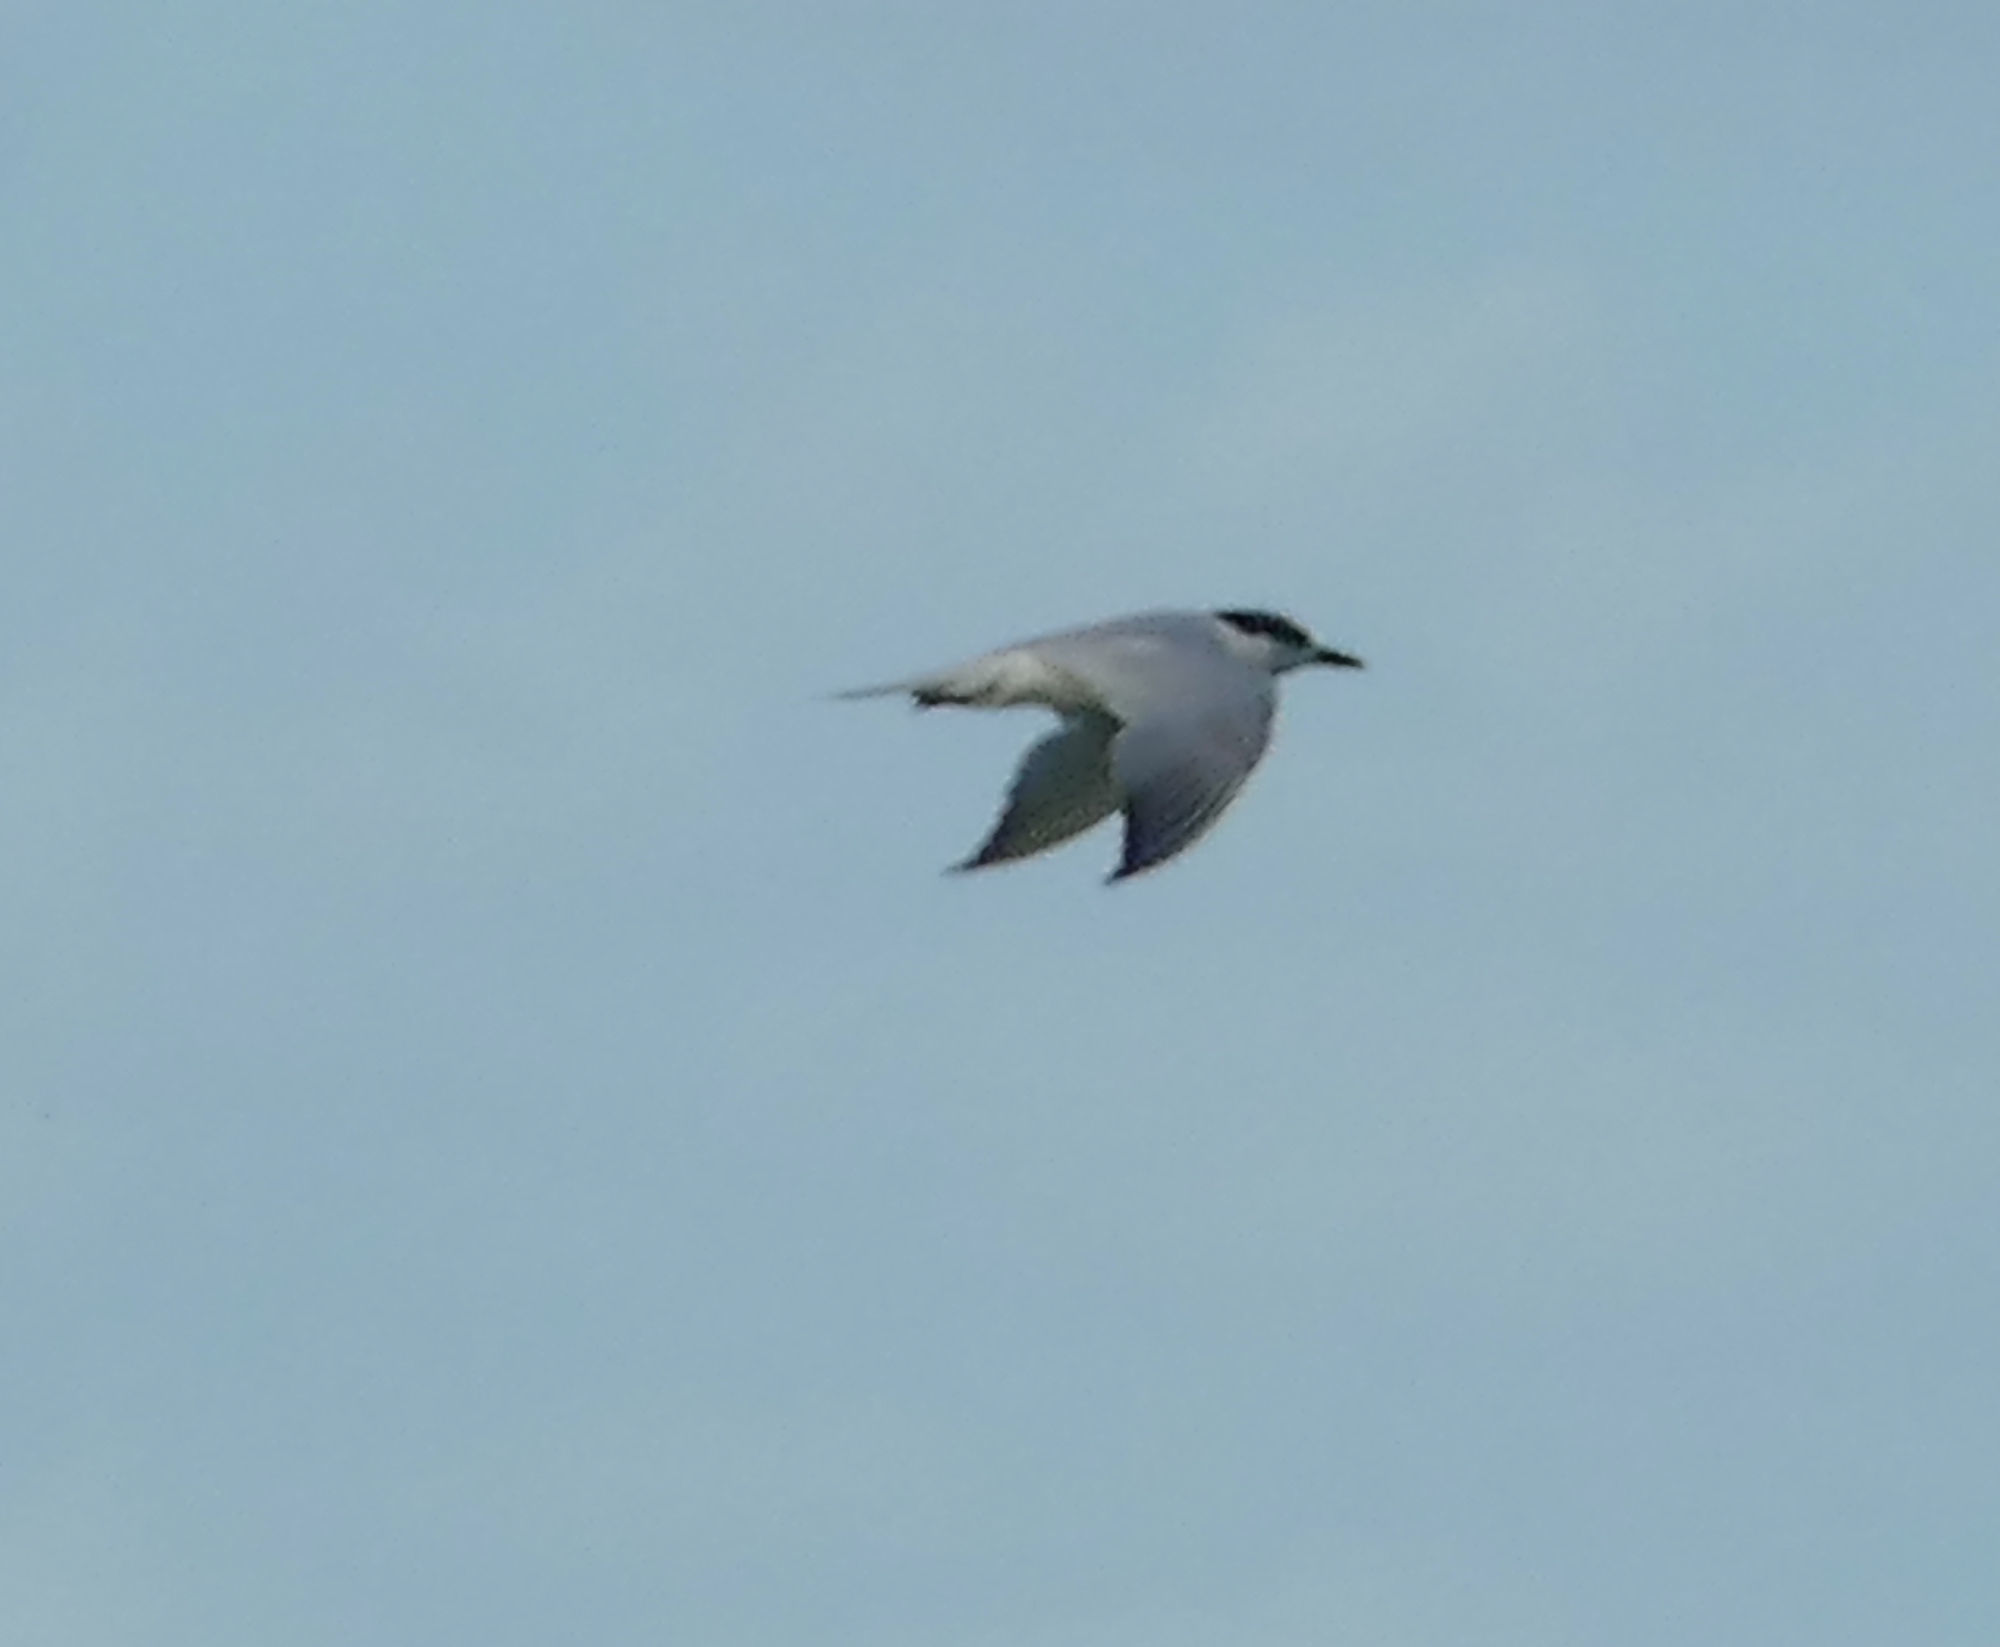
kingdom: Animalia
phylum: Chordata
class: Aves
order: Charadriiformes
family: Laridae
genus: Gelochelidon
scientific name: Gelochelidon nilotica
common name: Gull-billed tern
